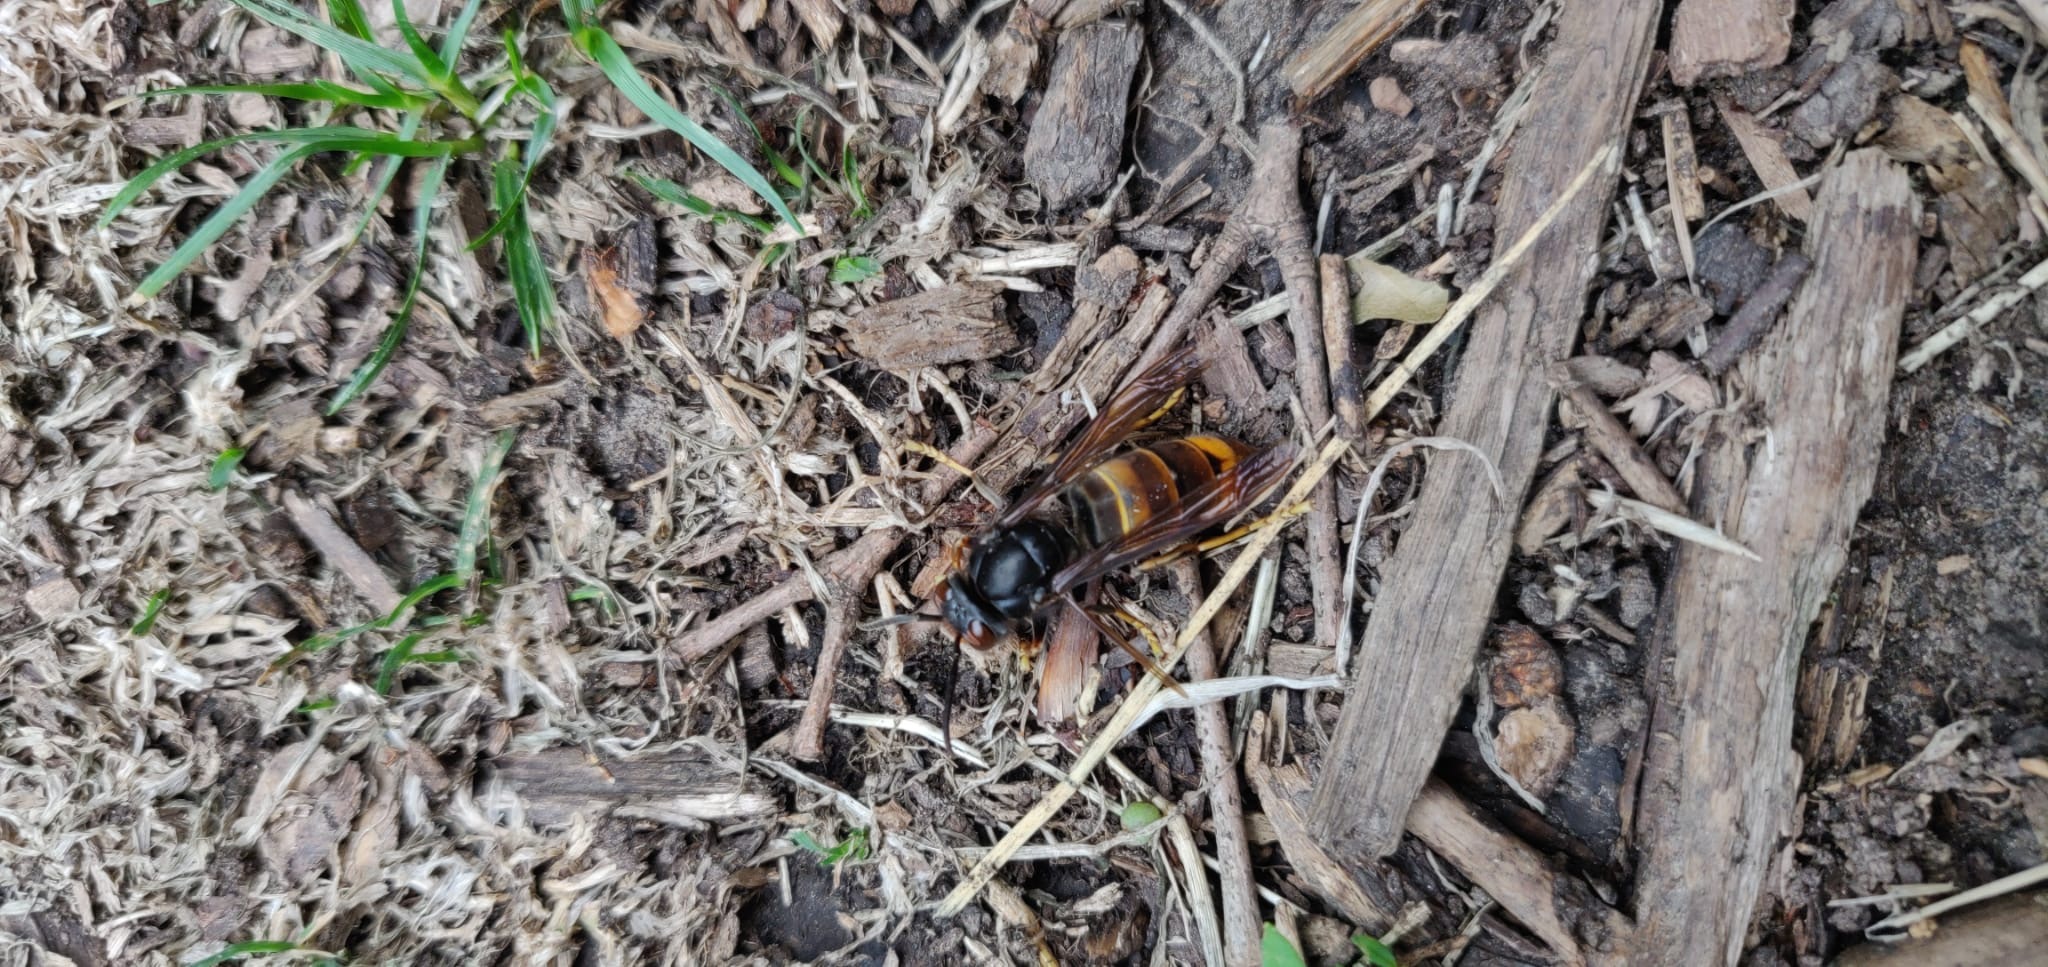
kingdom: Animalia
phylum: Arthropoda
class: Insecta
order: Hymenoptera
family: Vespidae
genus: Vespa
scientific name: Vespa velutina
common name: Asian hornet
